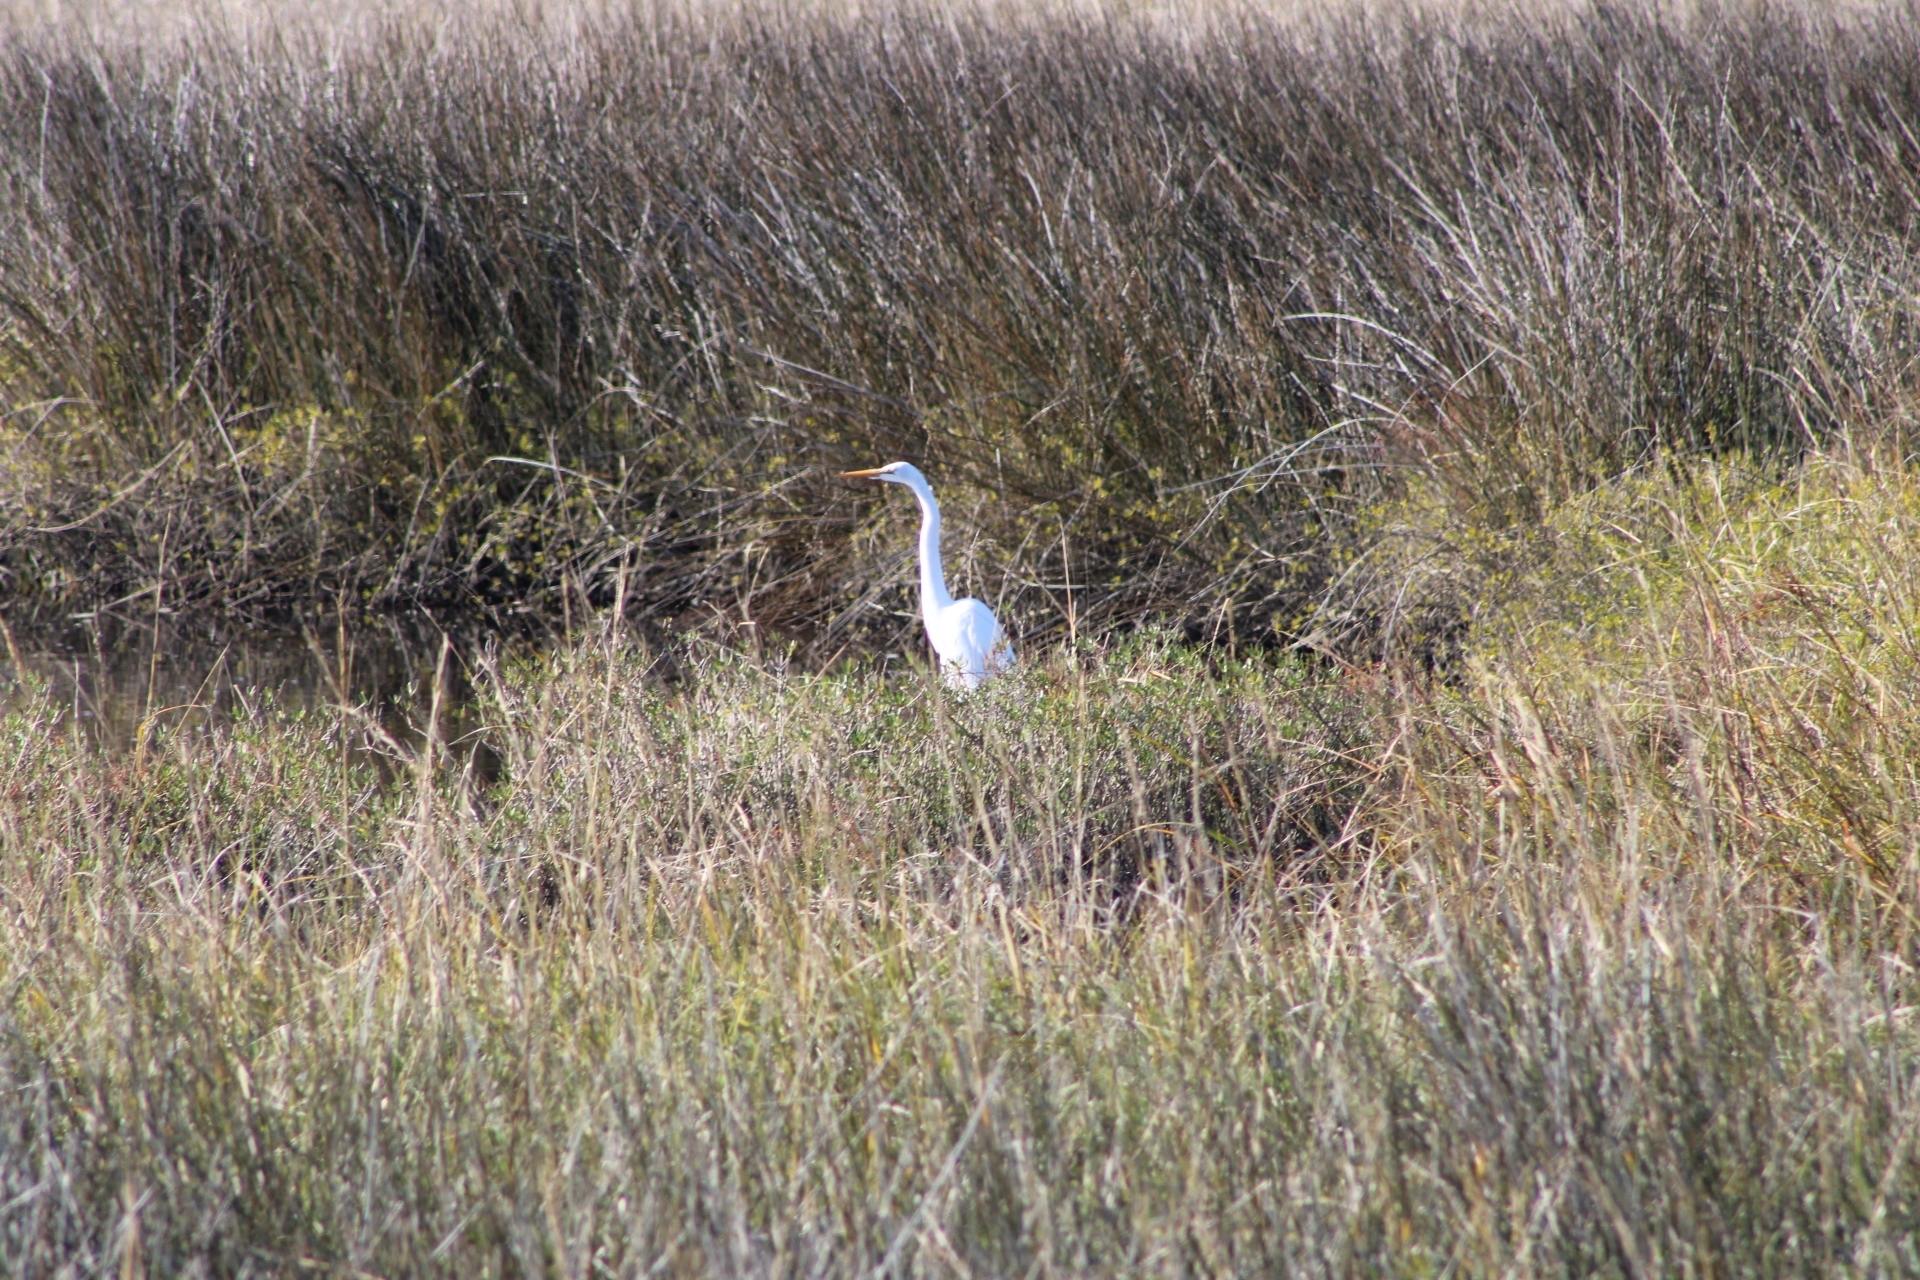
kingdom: Animalia
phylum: Chordata
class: Aves
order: Pelecaniformes
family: Ardeidae
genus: Ardea
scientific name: Ardea alba
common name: Great egret
